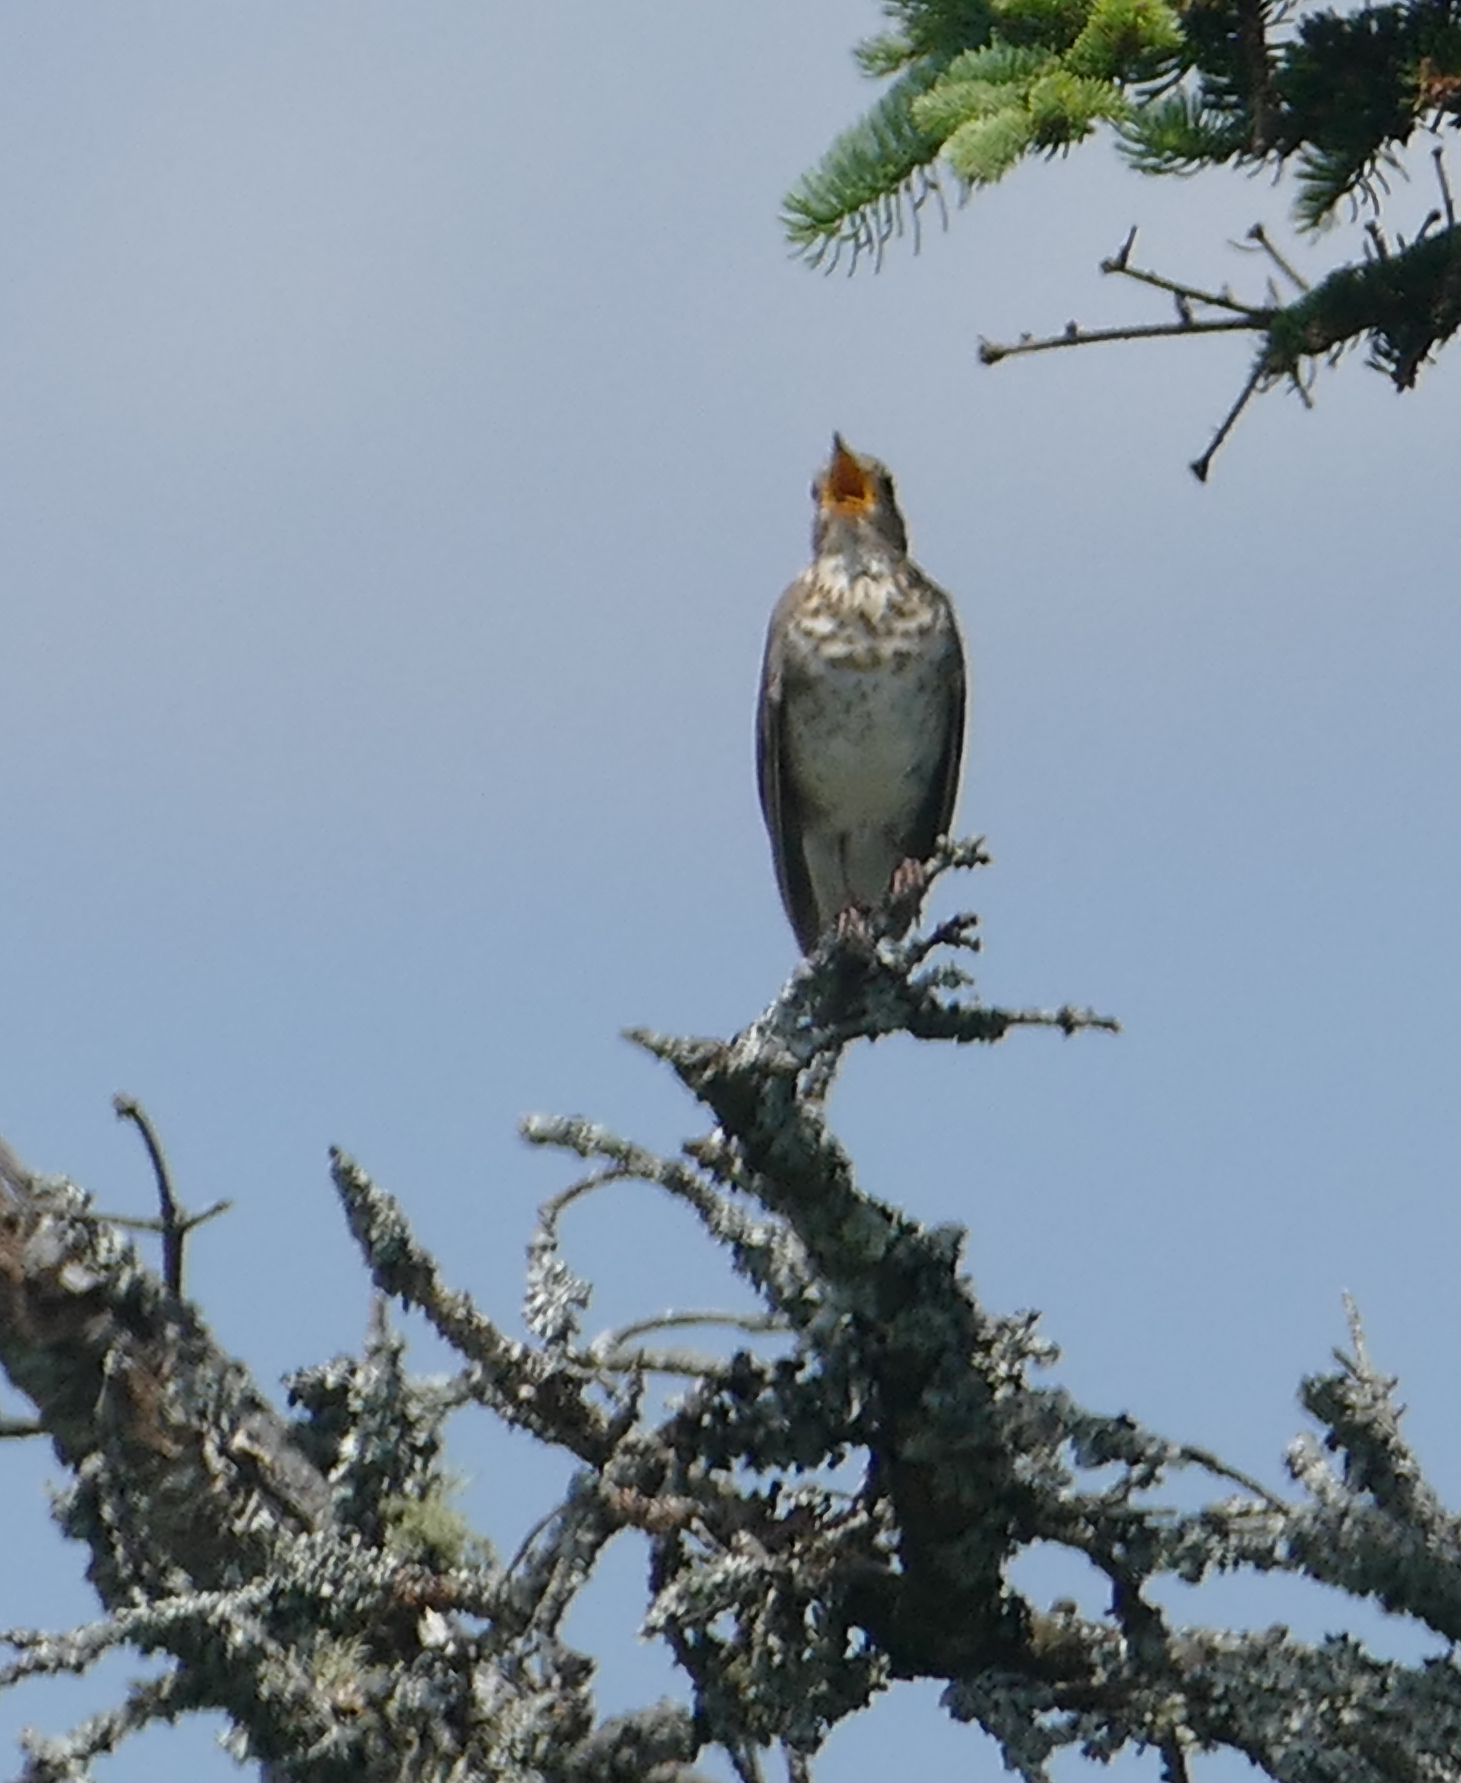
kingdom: Animalia
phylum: Chordata
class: Aves
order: Passeriformes
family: Turdidae
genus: Catharus
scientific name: Catharus ustulatus
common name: Swainson's thrush
